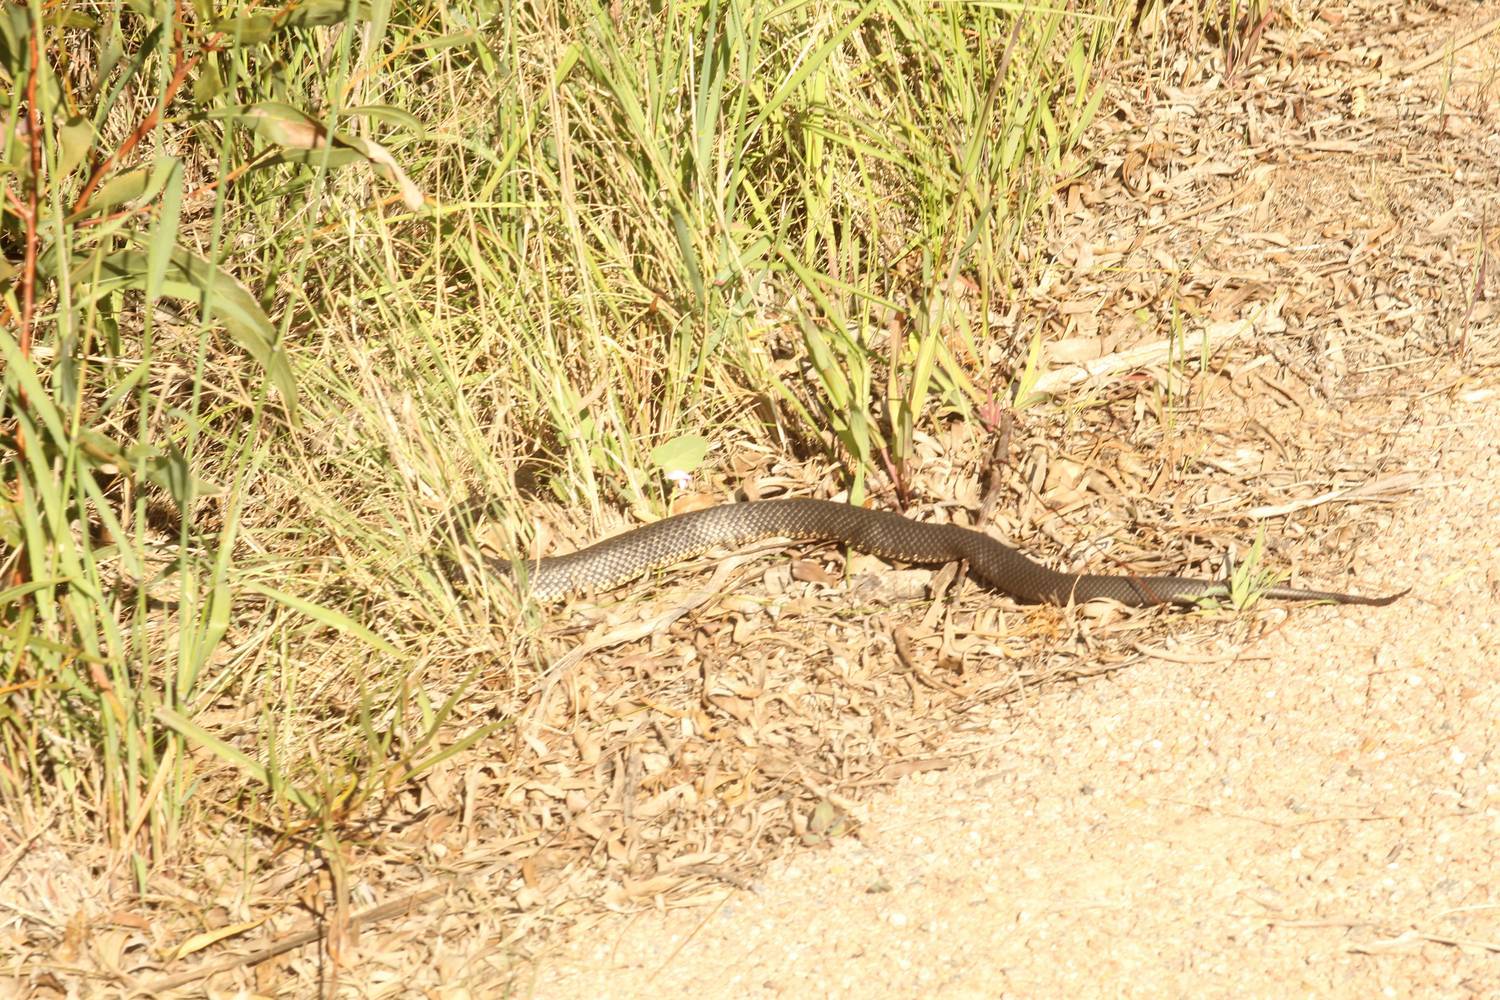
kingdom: Animalia
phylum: Chordata
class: Squamata
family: Elapidae
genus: Notechis
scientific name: Notechis scutatus
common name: Mainland tiger snake
